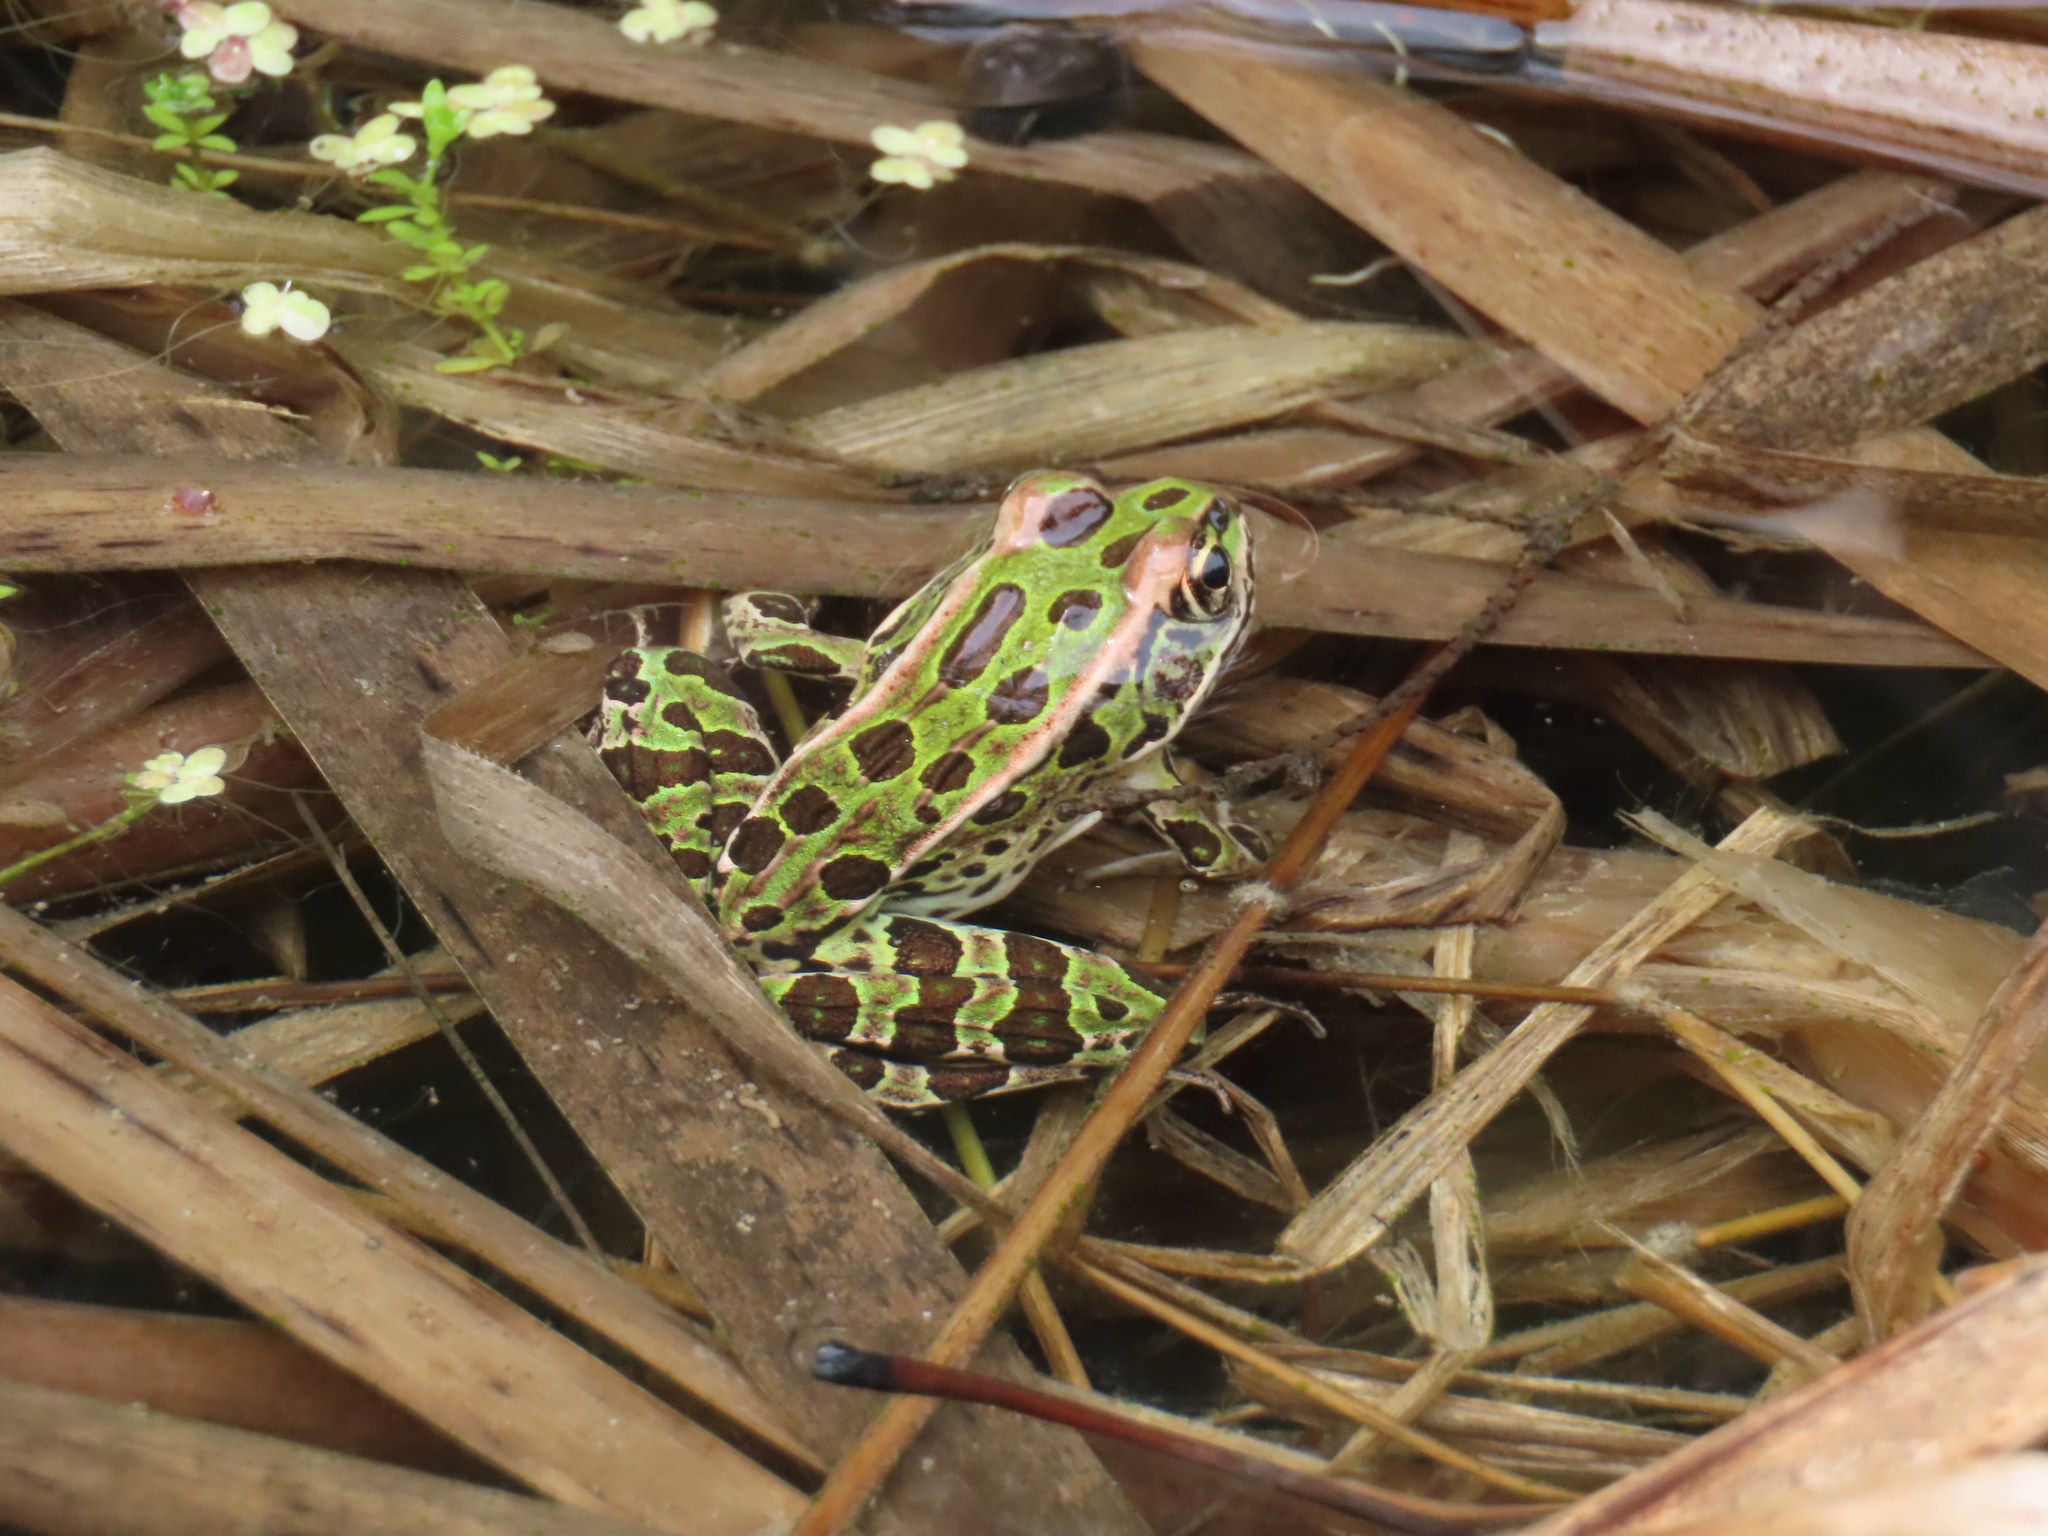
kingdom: Animalia
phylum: Chordata
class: Amphibia
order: Anura
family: Ranidae
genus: Lithobates
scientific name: Lithobates pipiens
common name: Northern leopard frog
